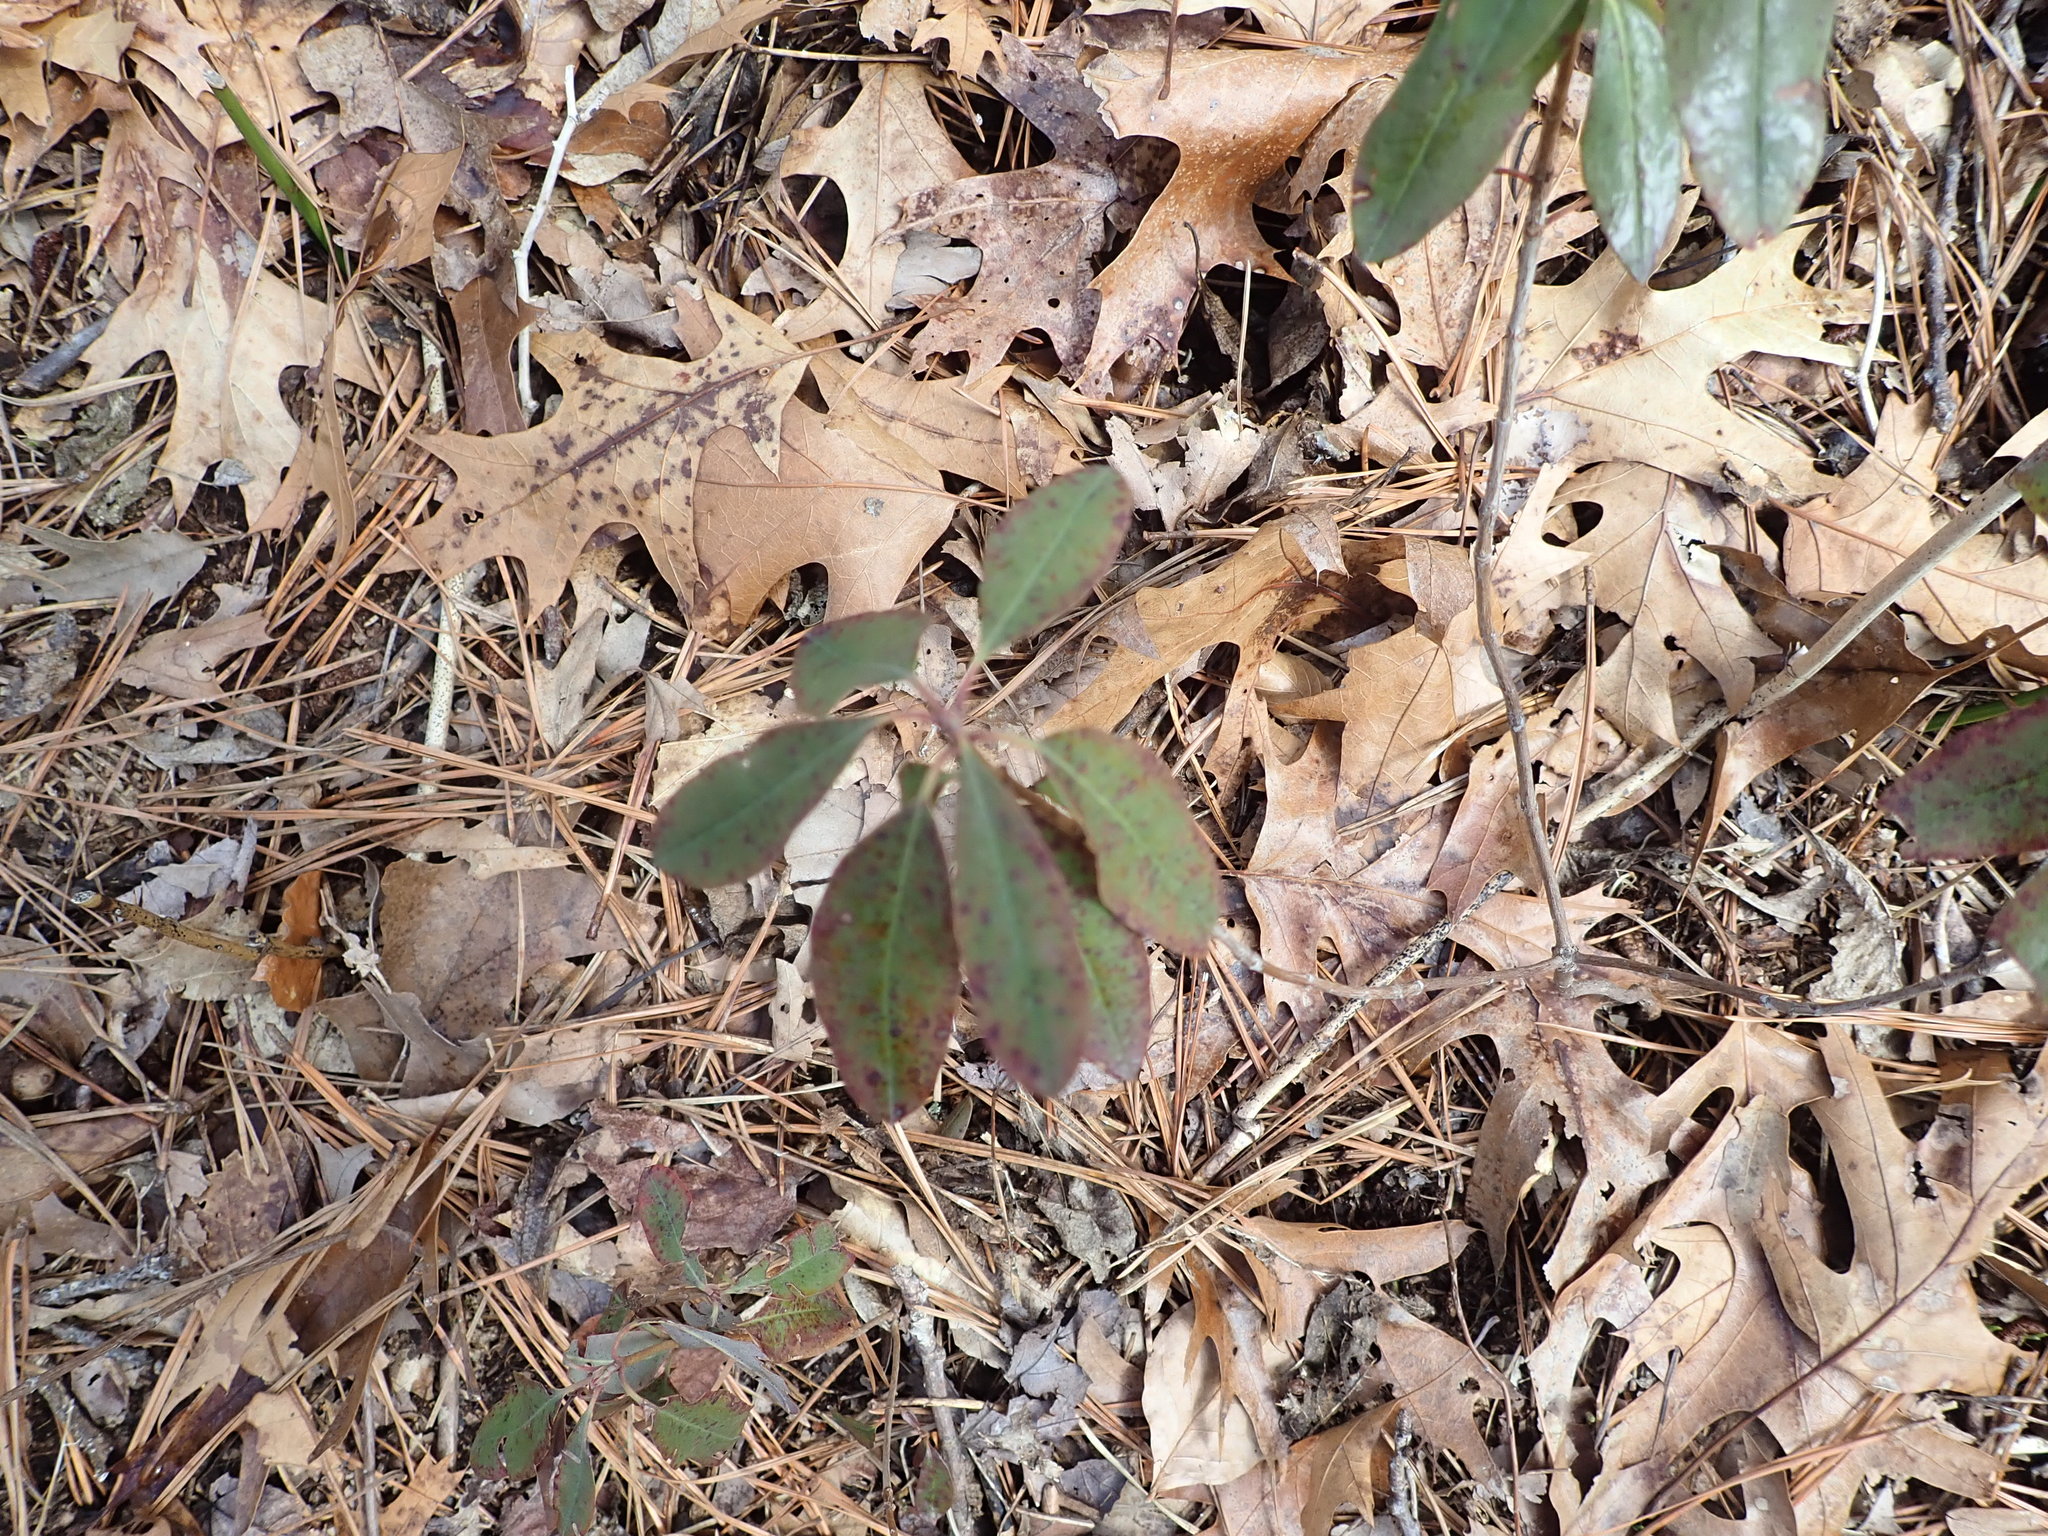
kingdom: Plantae
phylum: Tracheophyta
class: Magnoliopsida
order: Ericales
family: Ericaceae
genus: Kalmia
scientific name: Kalmia angustifolia
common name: Sheep-laurel
